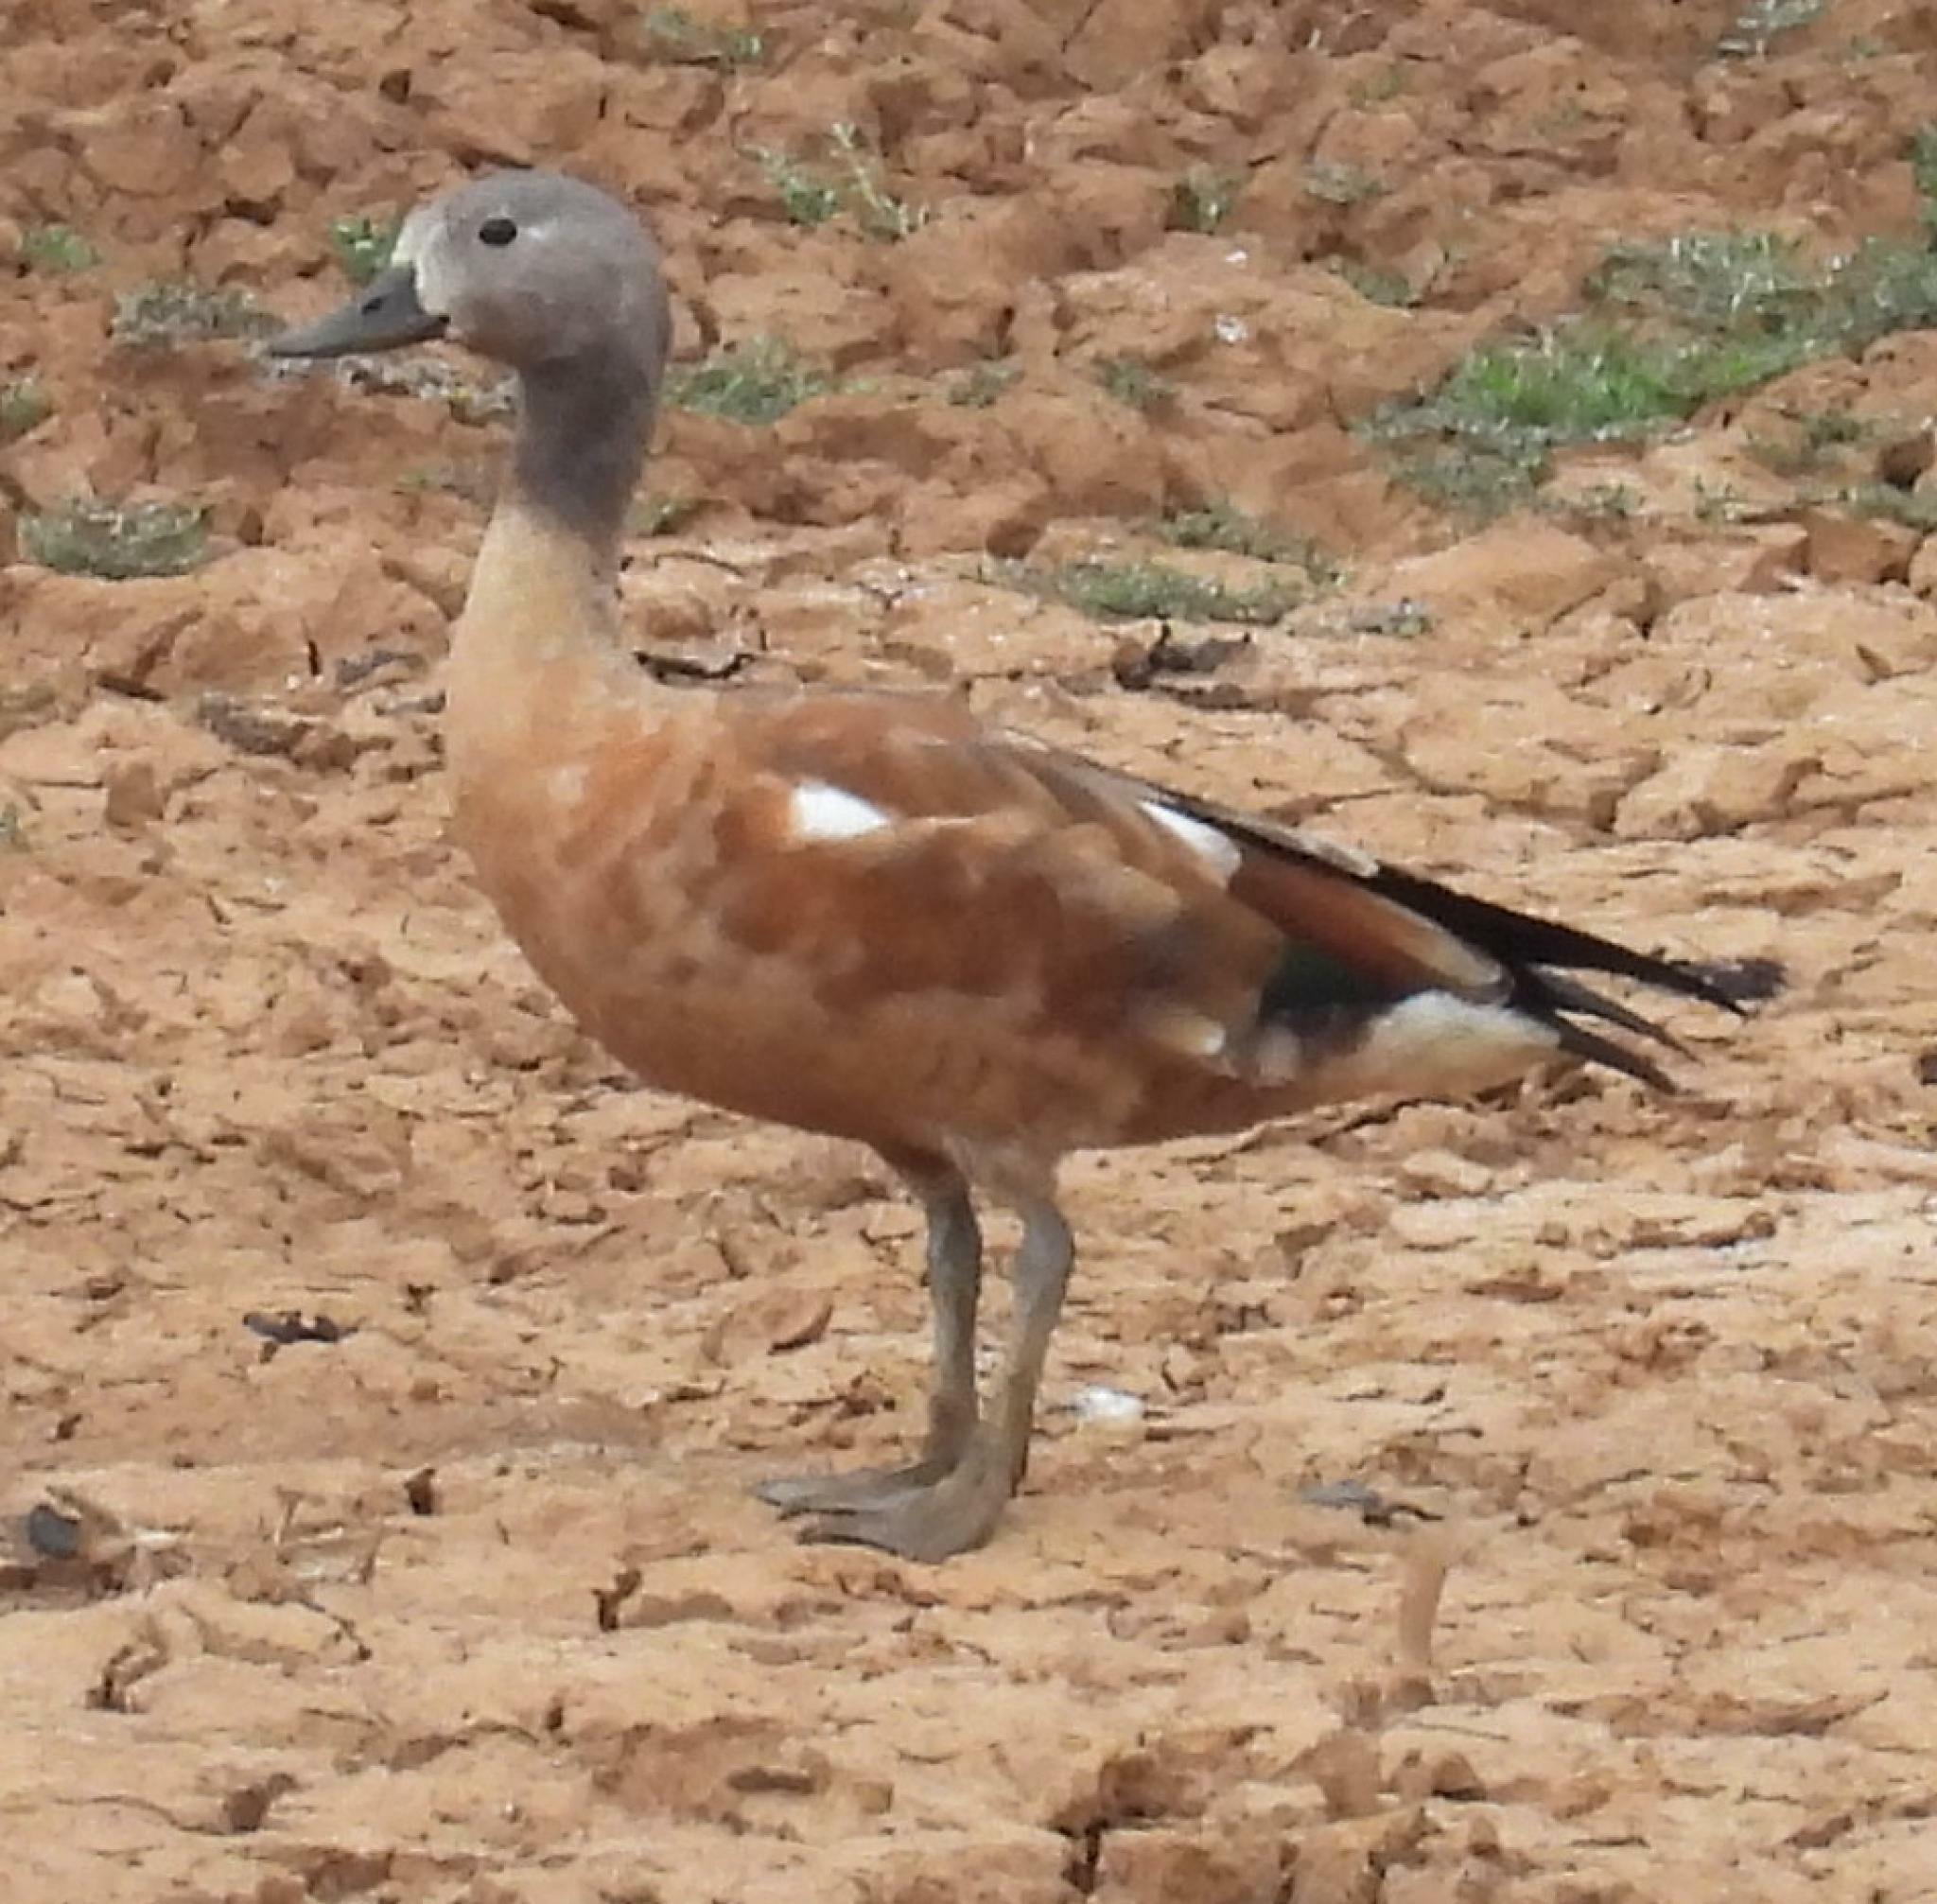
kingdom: Animalia
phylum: Chordata
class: Aves
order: Anseriformes
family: Anatidae
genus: Tadorna
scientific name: Tadorna cana
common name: South african shelduck
